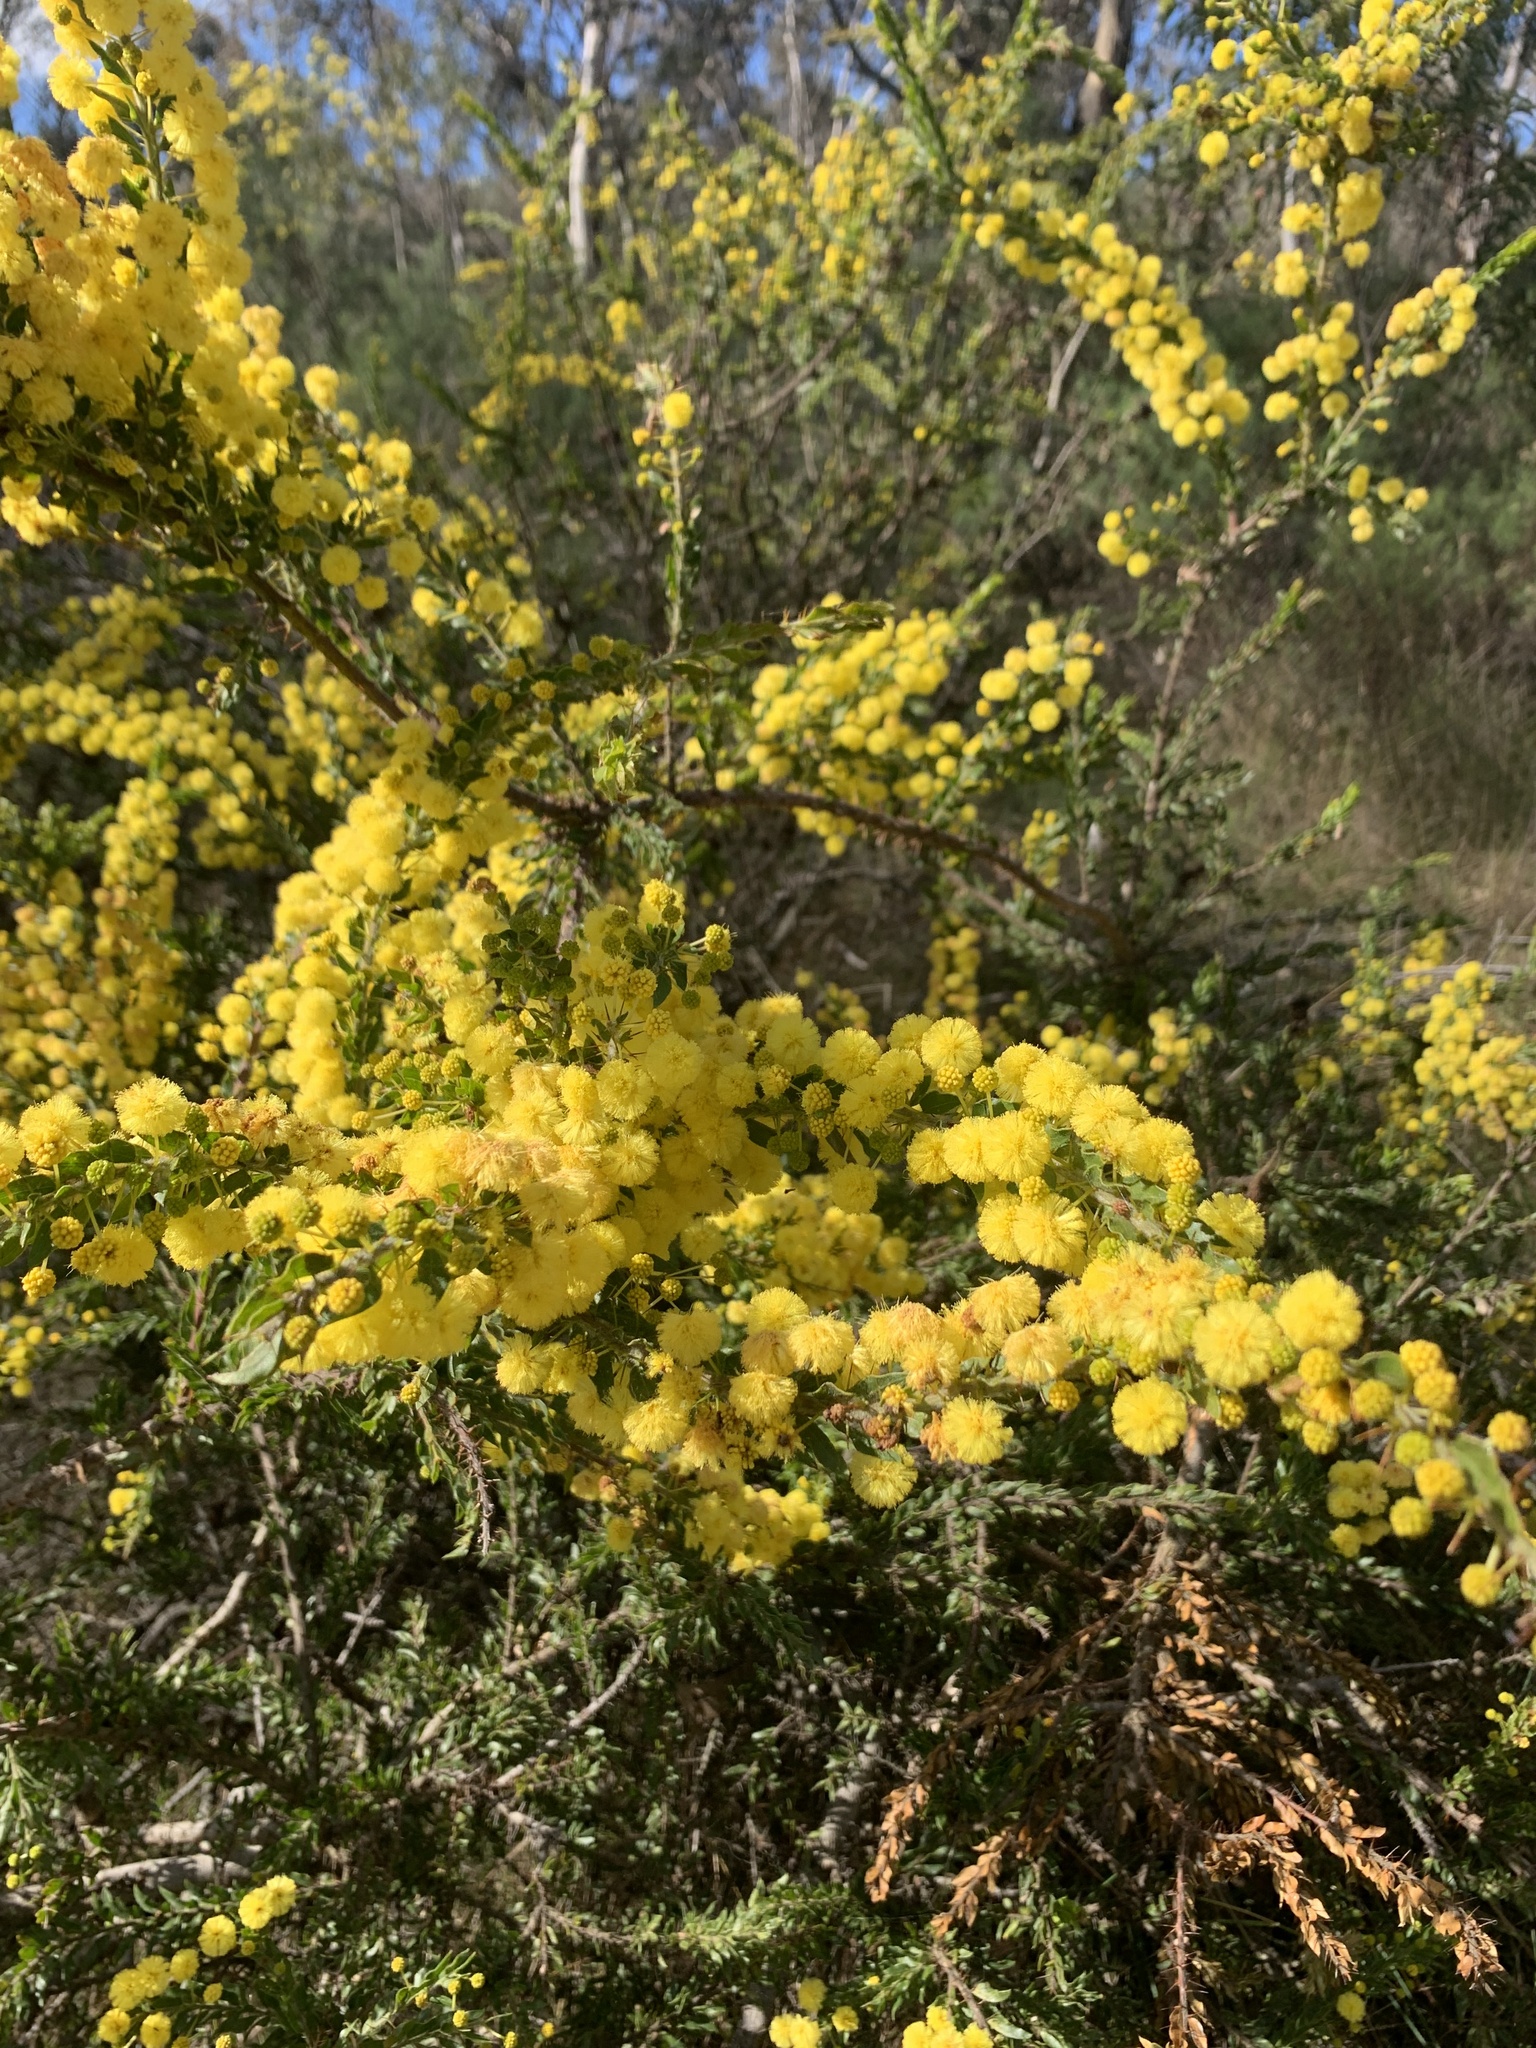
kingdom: Plantae
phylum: Tracheophyta
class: Magnoliopsida
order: Fabales
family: Fabaceae
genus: Acacia
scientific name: Acacia paradoxa
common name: Paradox acacia
